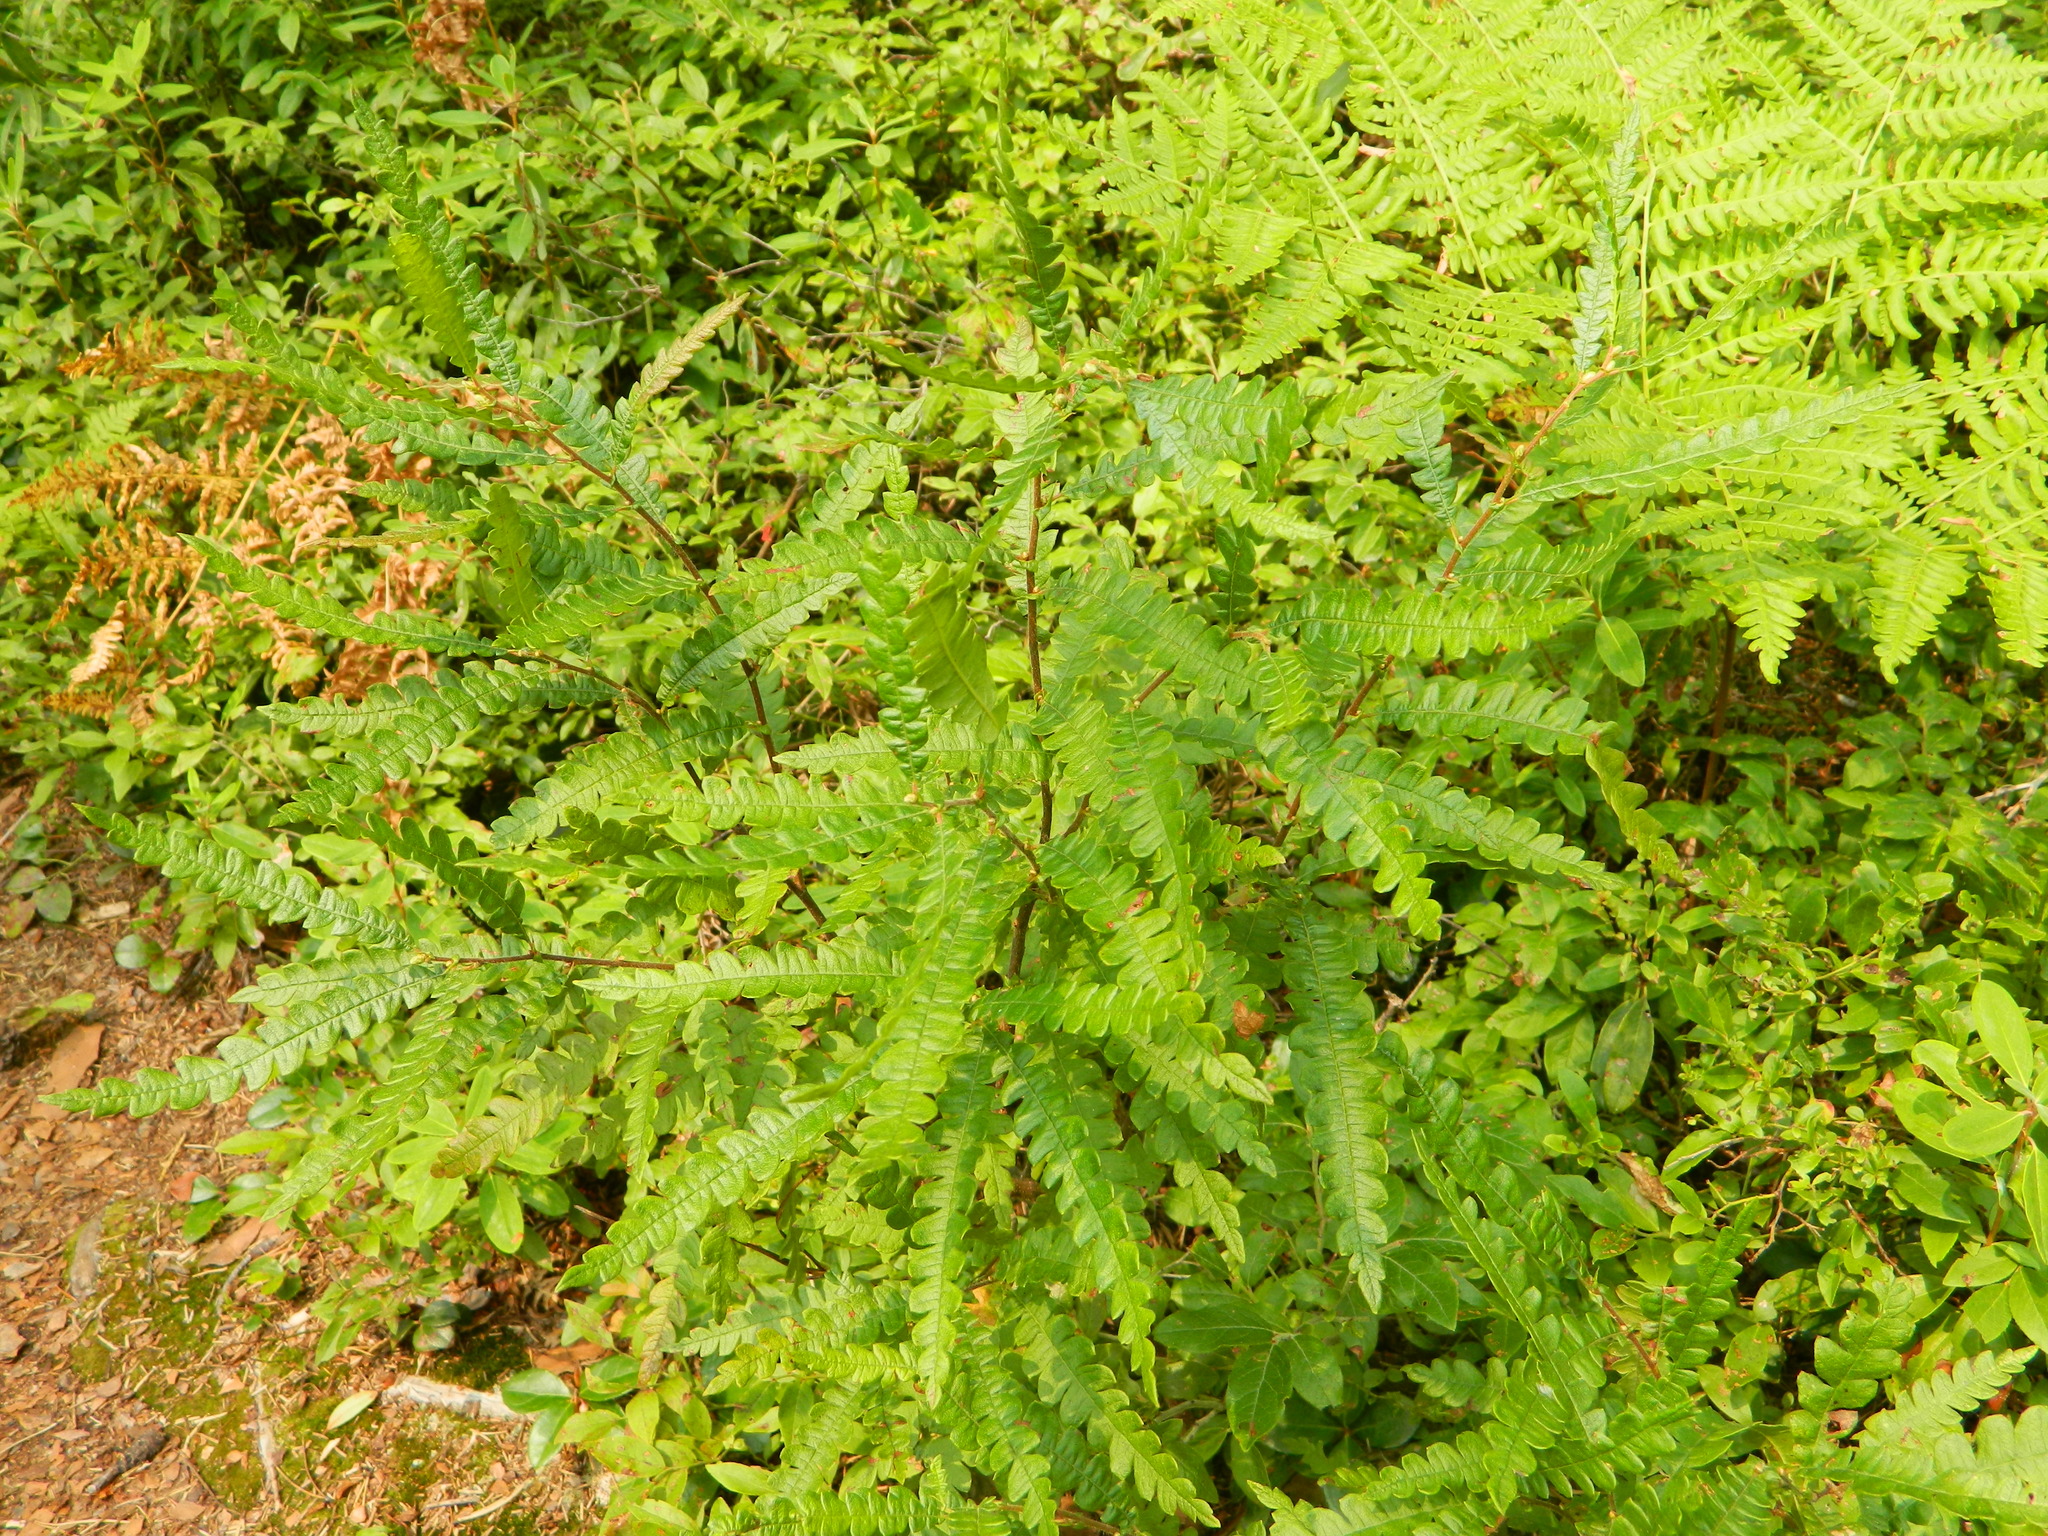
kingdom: Plantae
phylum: Tracheophyta
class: Magnoliopsida
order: Fagales
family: Myricaceae
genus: Comptonia
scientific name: Comptonia peregrina
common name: Sweet-fern
